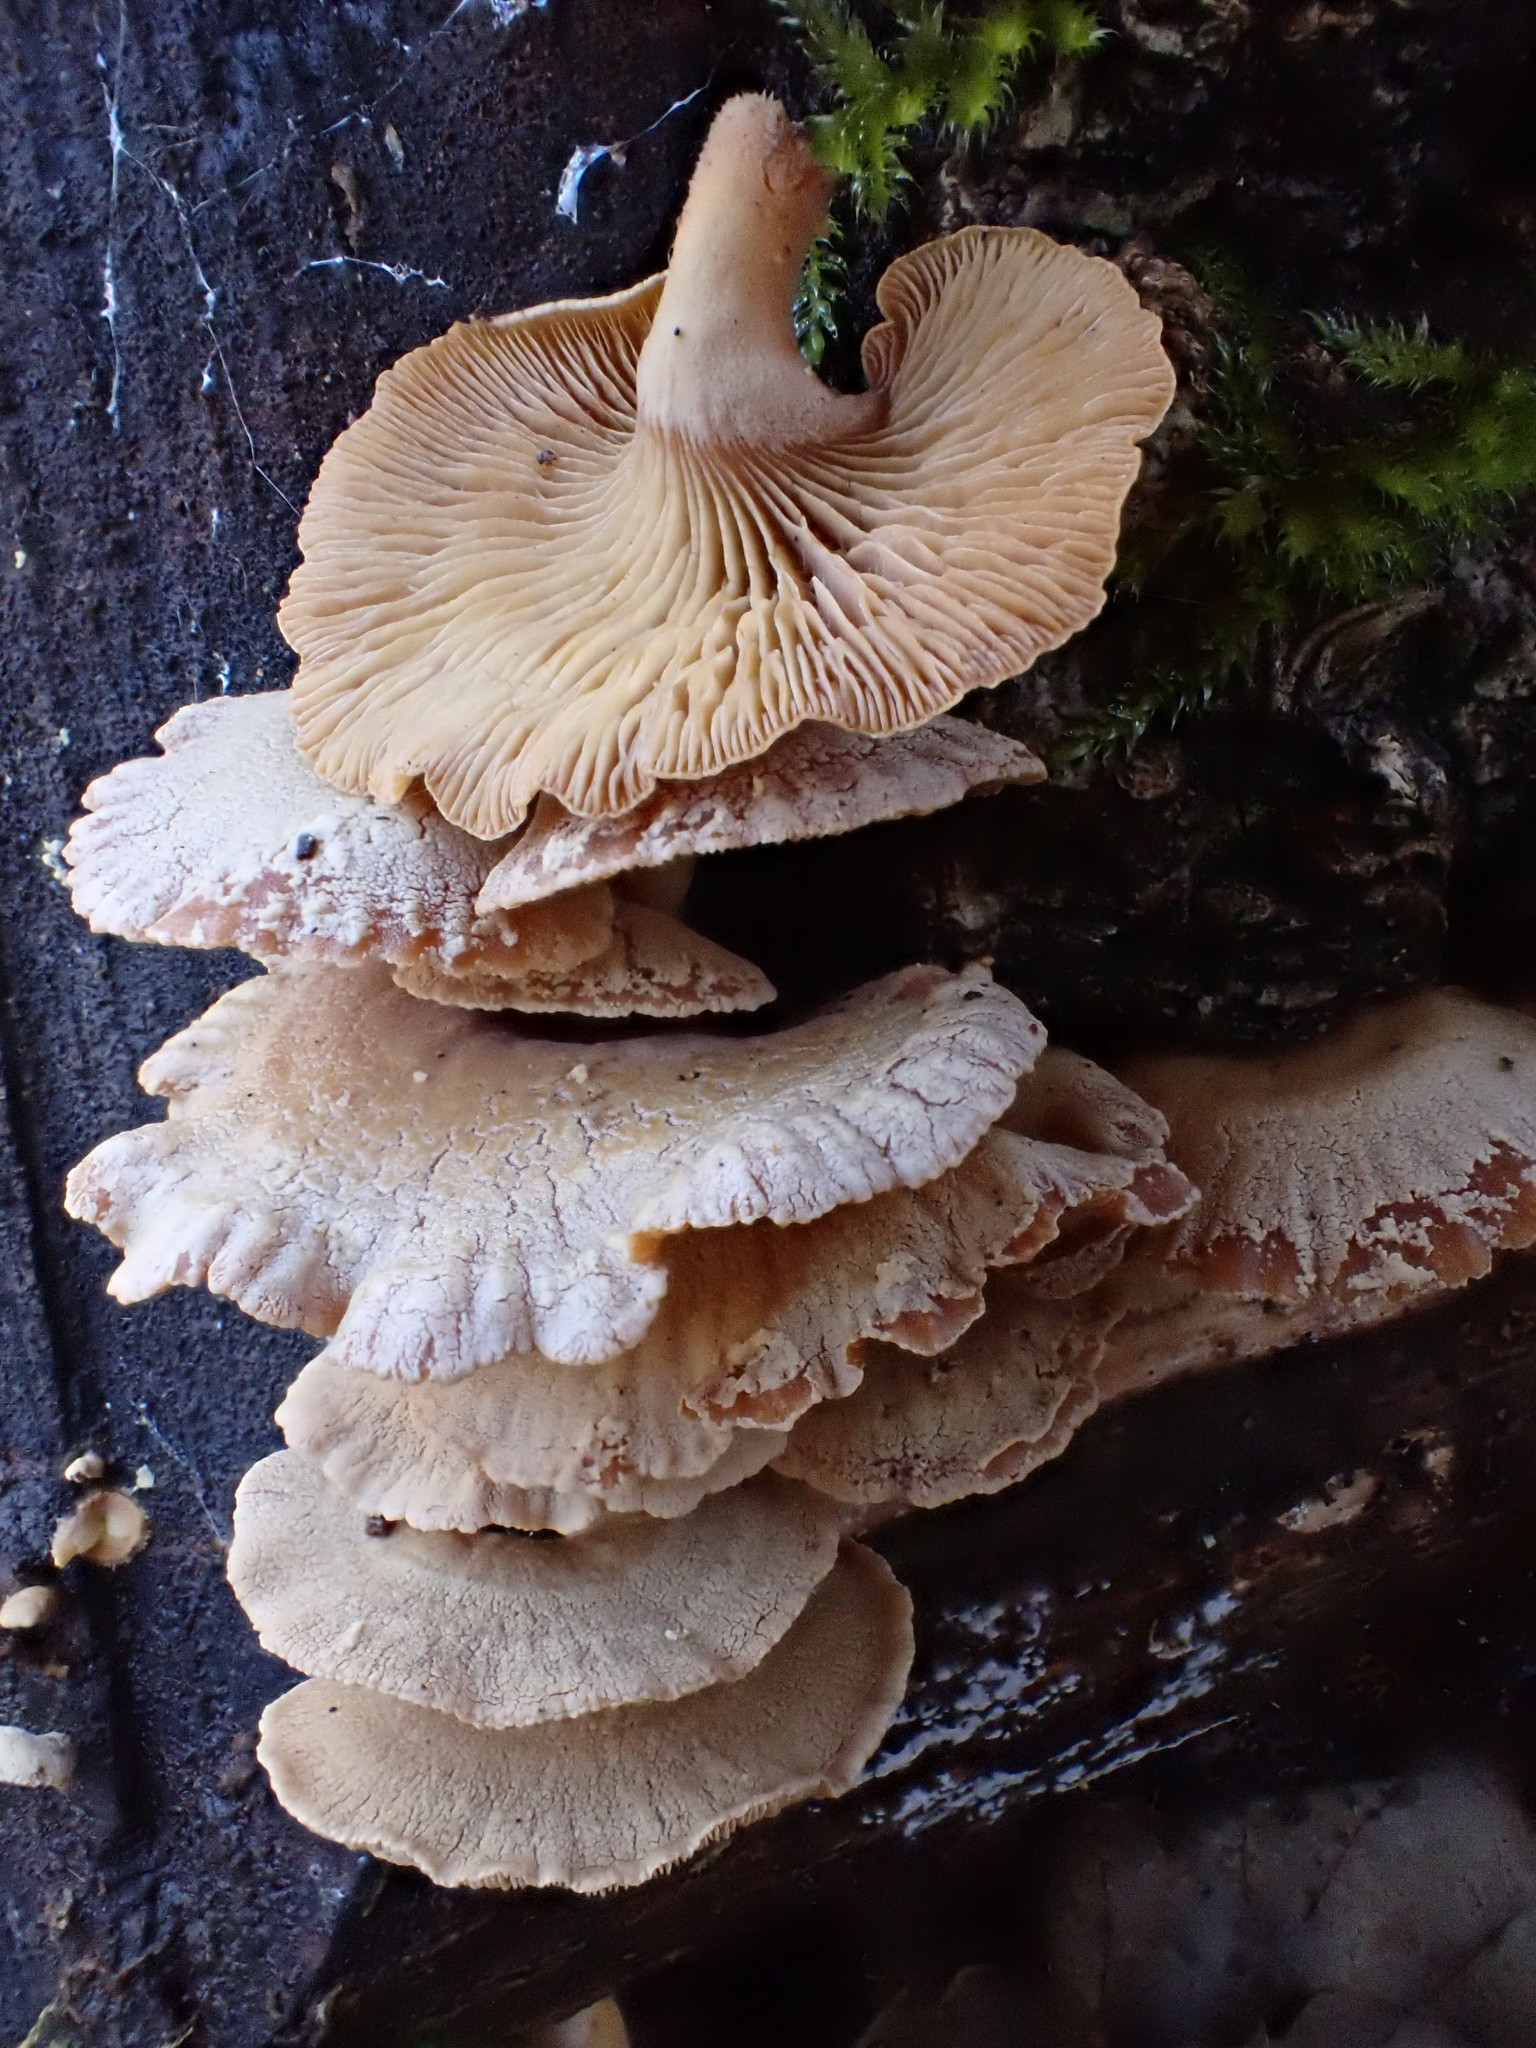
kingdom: Fungi
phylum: Basidiomycota
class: Agaricomycetes
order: Agaricales
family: Mycenaceae
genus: Panellus
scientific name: Panellus stipticus
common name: Bitter oysterling
